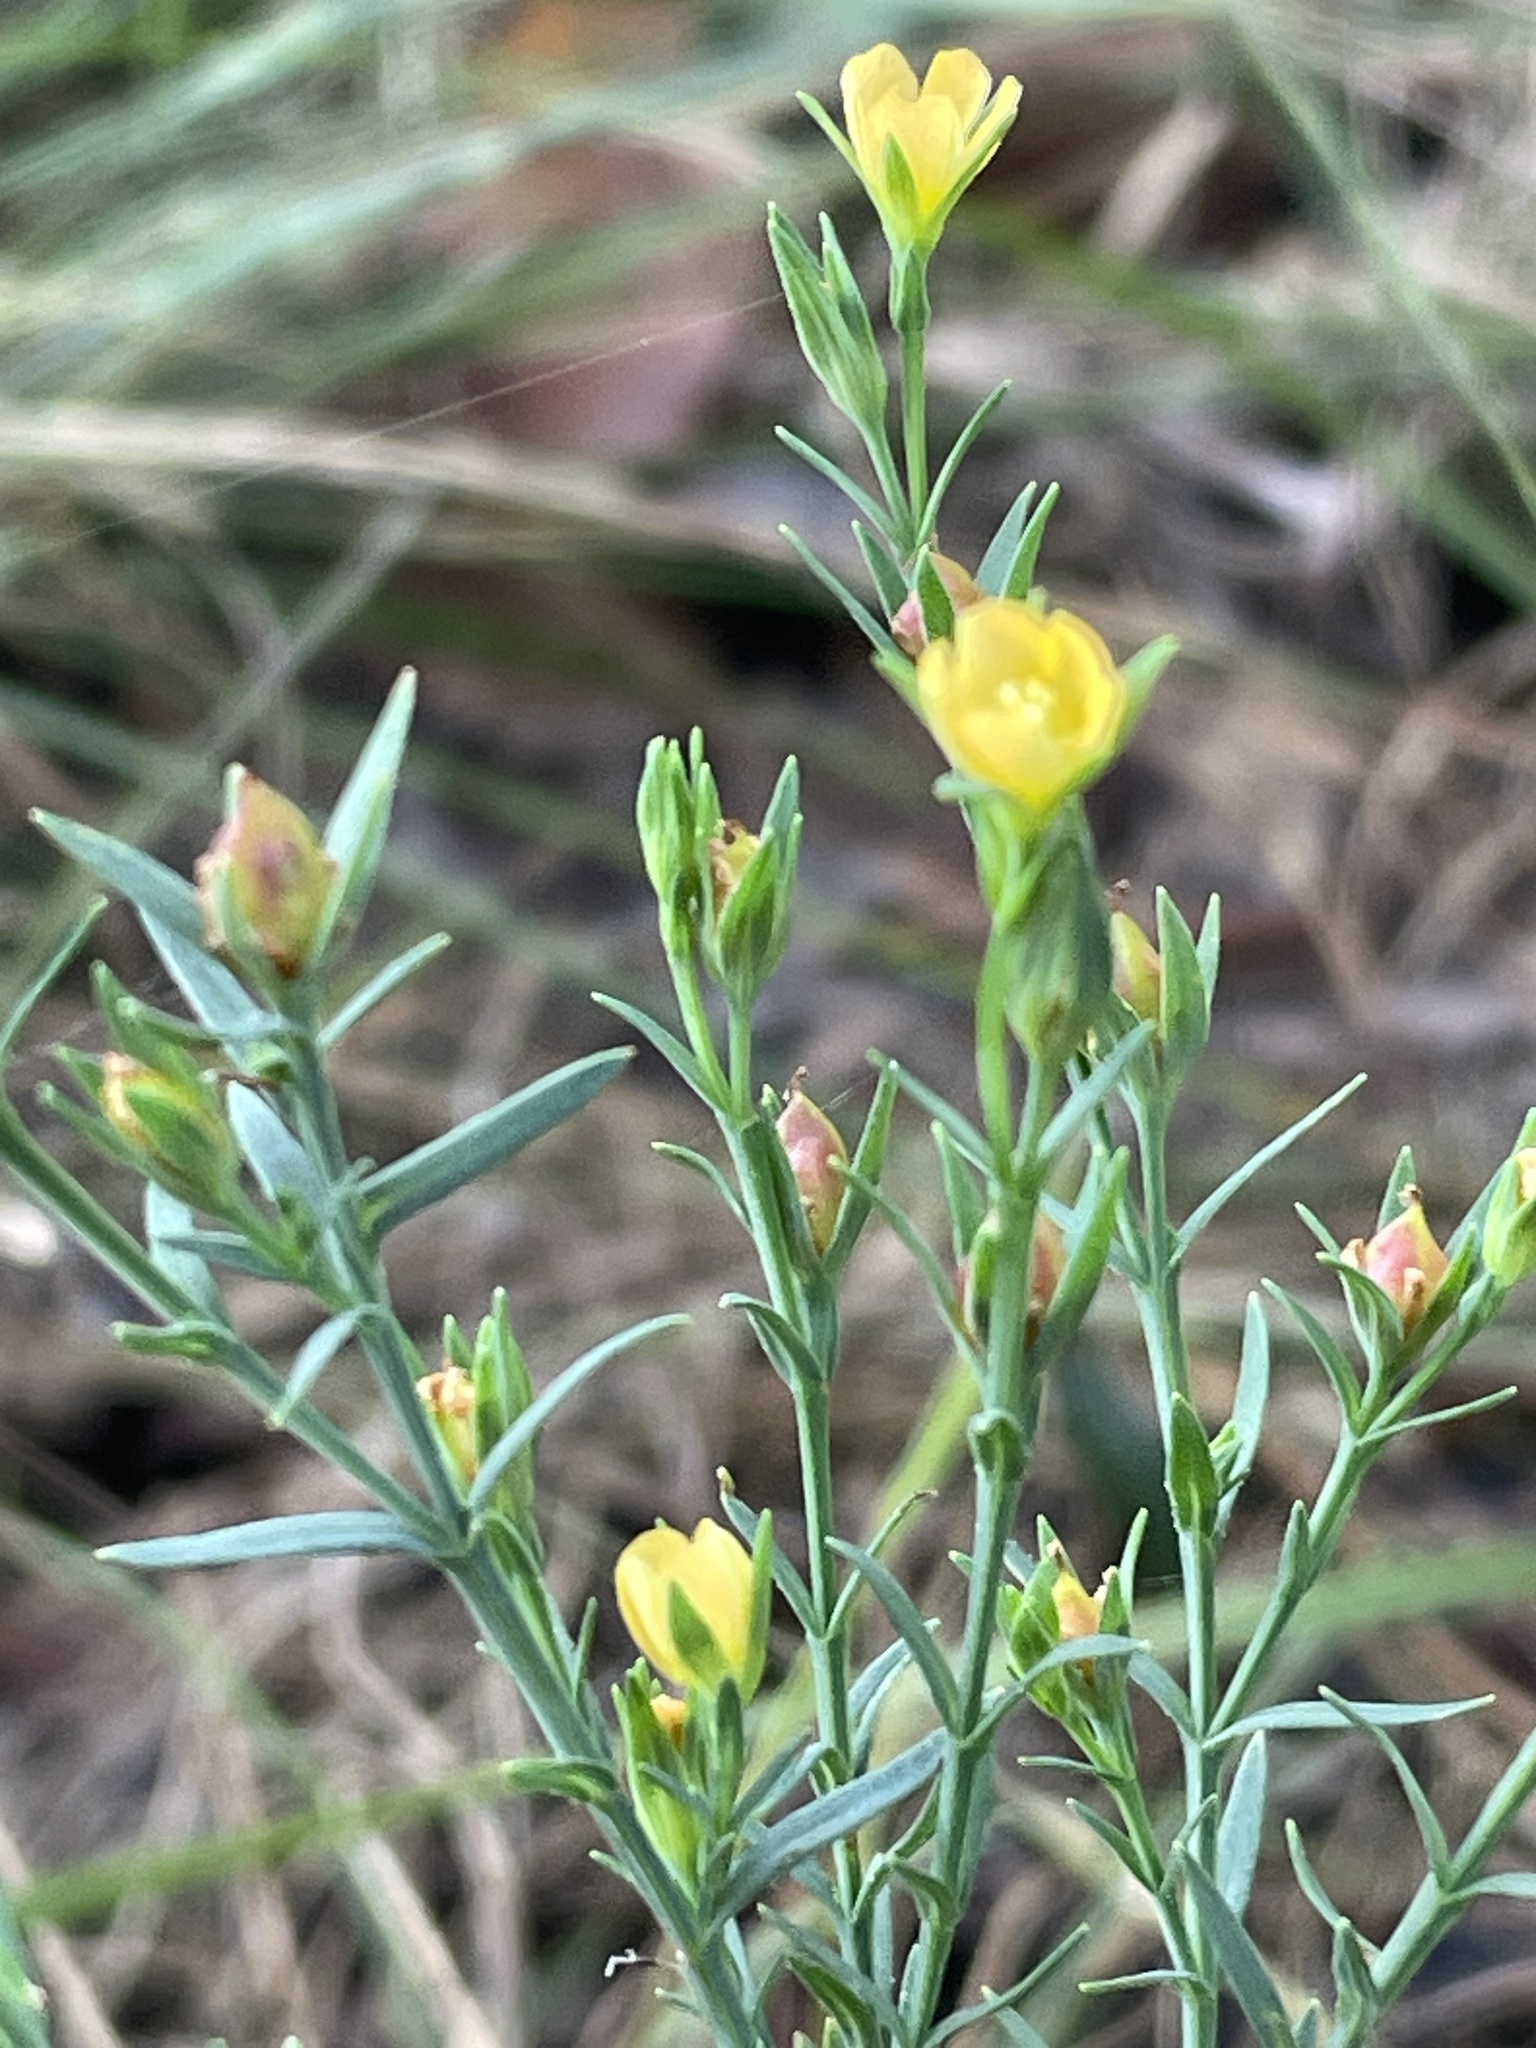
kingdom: Plantae
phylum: Tracheophyta
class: Magnoliopsida
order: Malpighiales
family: Hypericaceae
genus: Hypericum
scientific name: Hypericum drummondii
